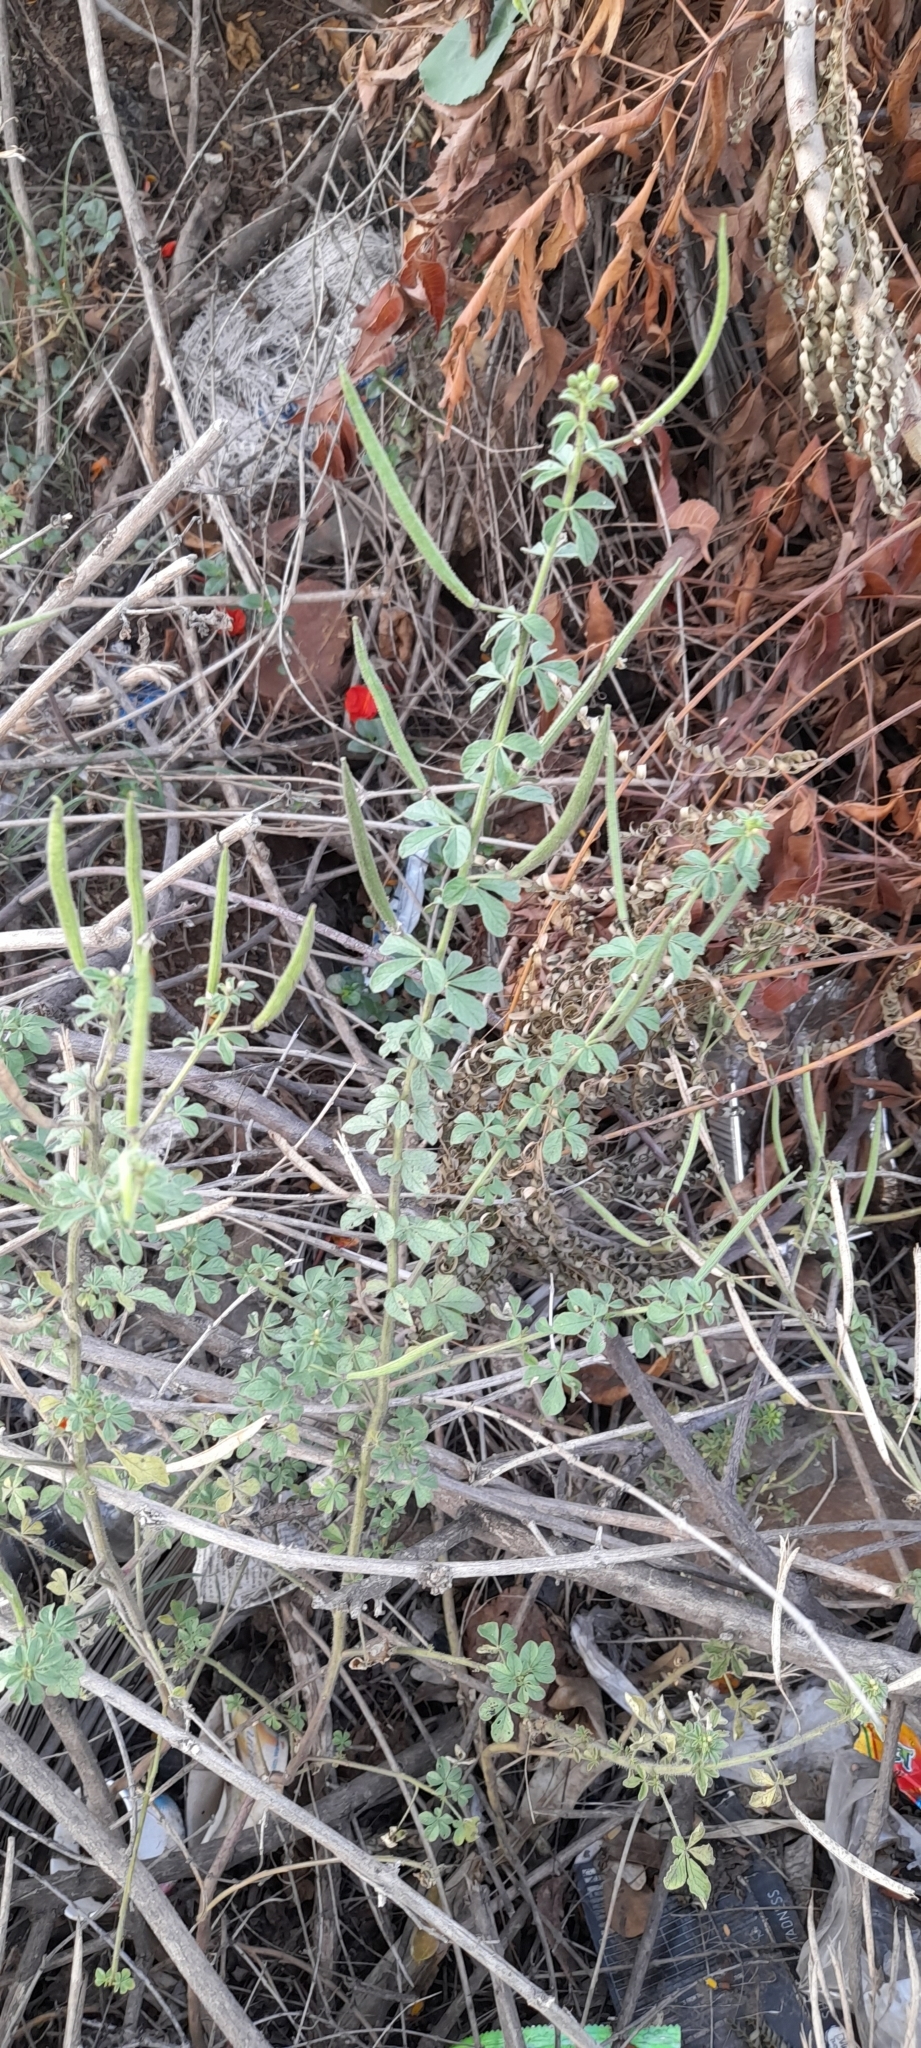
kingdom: Plantae
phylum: Tracheophyta
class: Magnoliopsida
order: Brassicales
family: Cleomaceae
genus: Arivela
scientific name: Arivela viscosa
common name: Asian spiderflower
